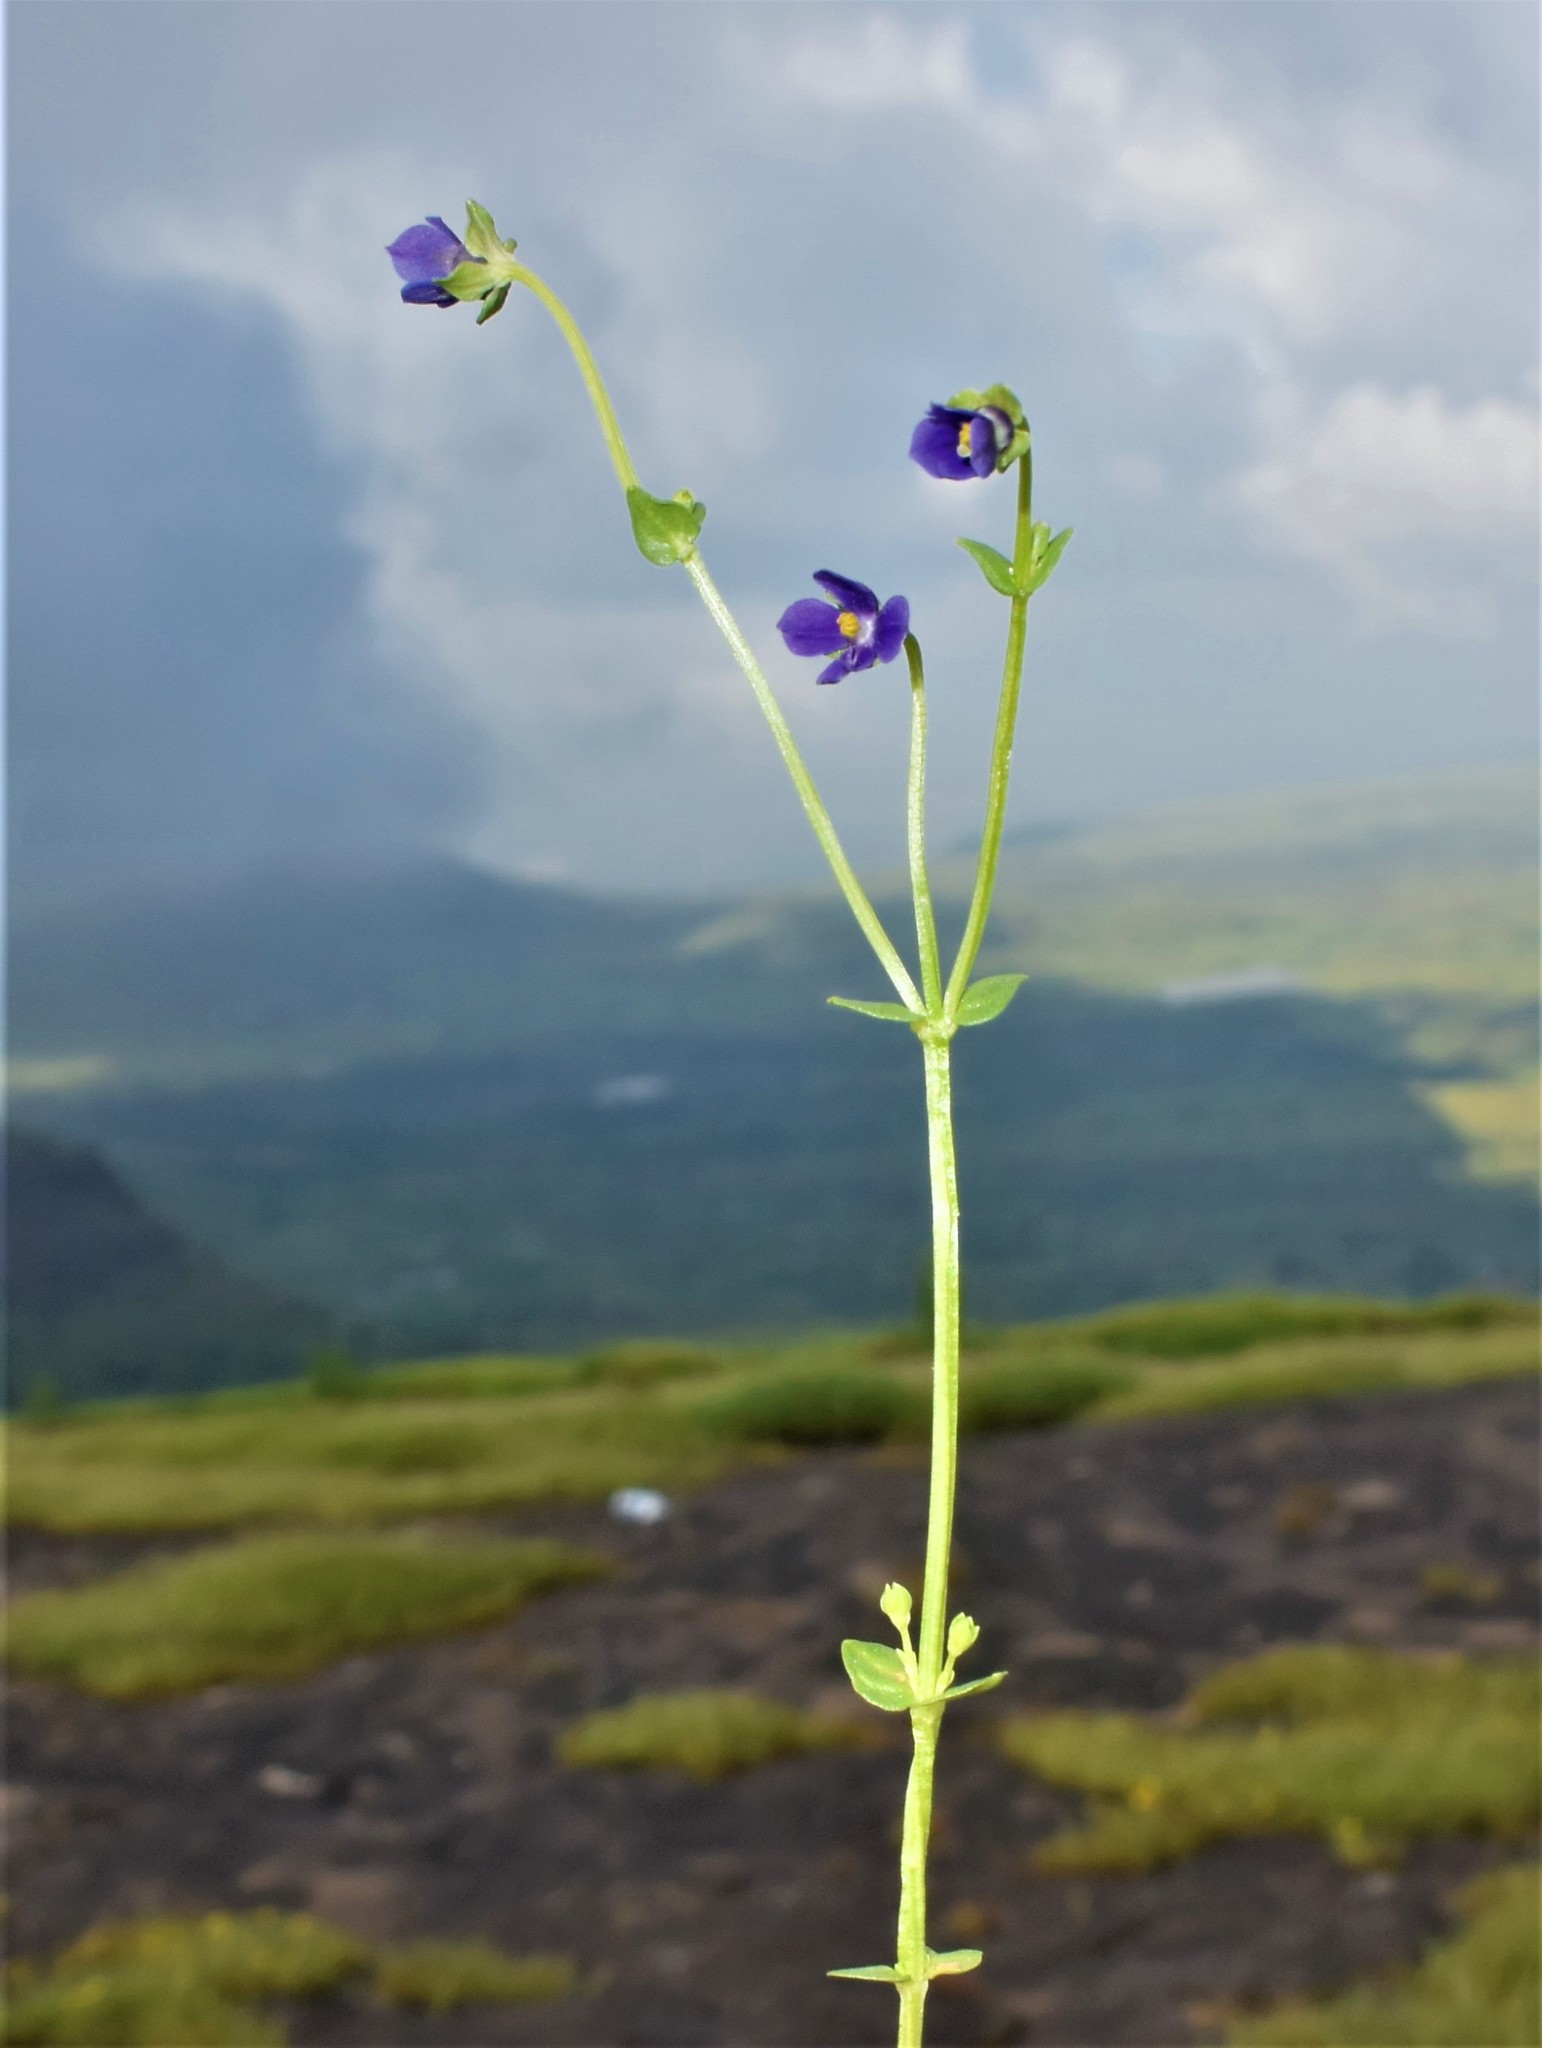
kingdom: Plantae
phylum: Tracheophyta
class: Magnoliopsida
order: Gentianales
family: Gentianaceae
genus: Exacum
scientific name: Exacum lawii
